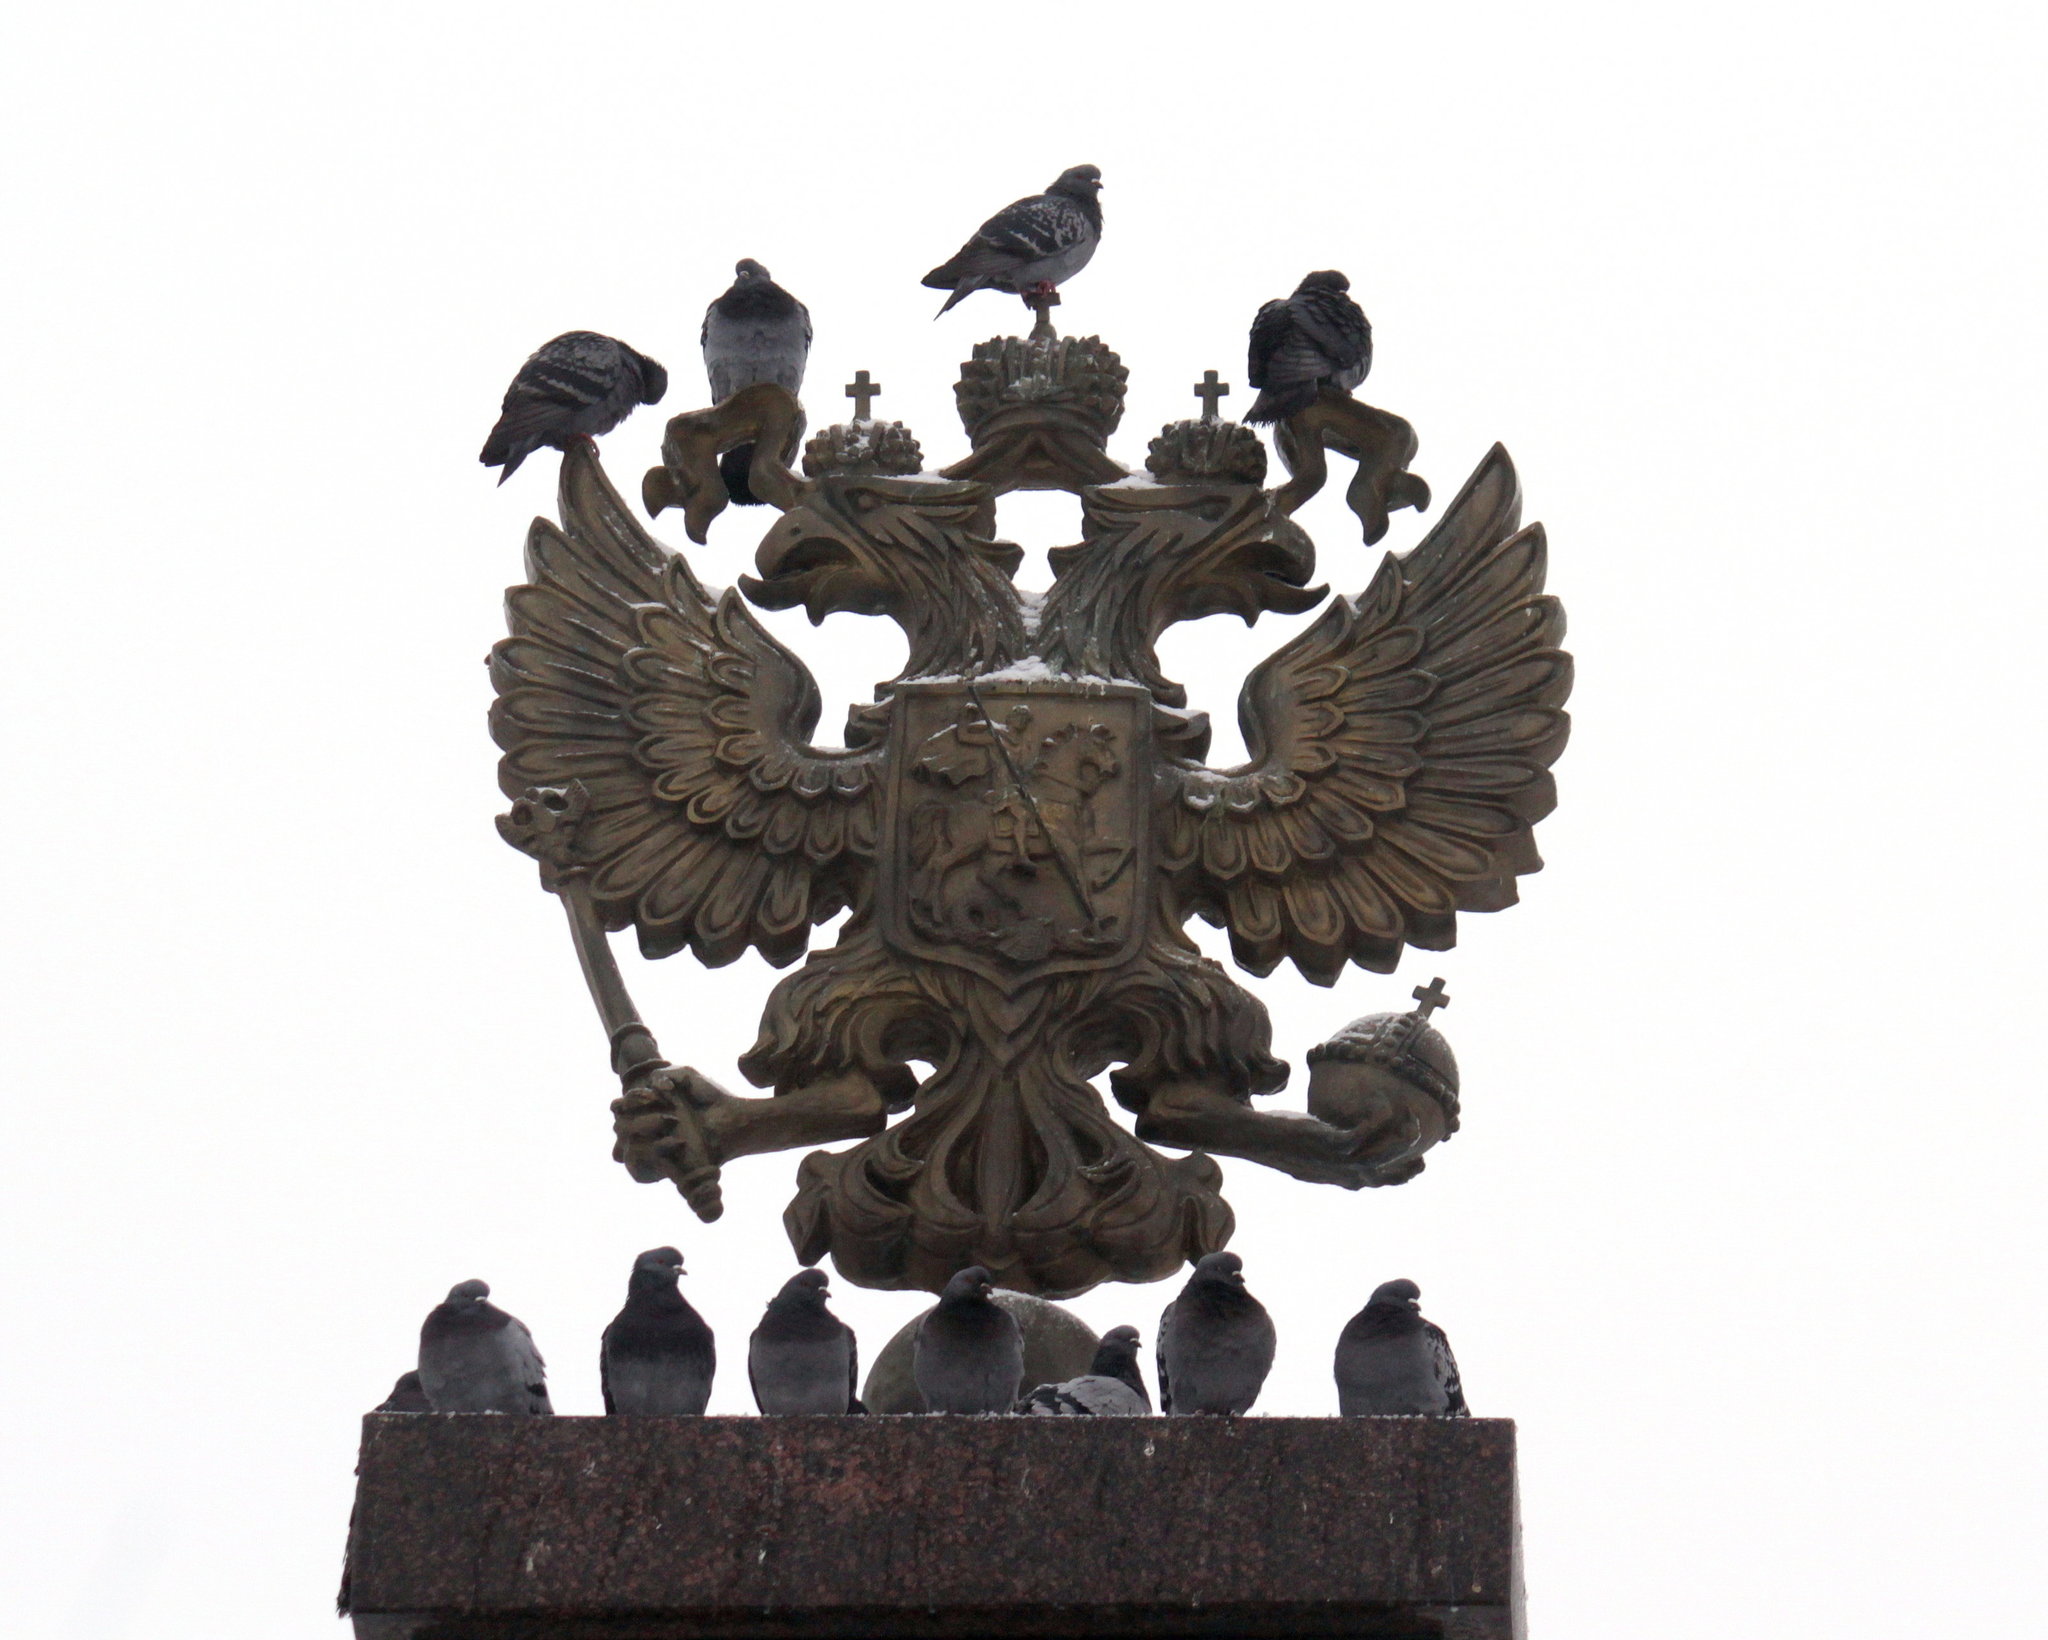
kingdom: Animalia
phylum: Chordata
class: Aves
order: Columbiformes
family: Columbidae
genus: Columba
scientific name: Columba livia
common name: Rock pigeon
